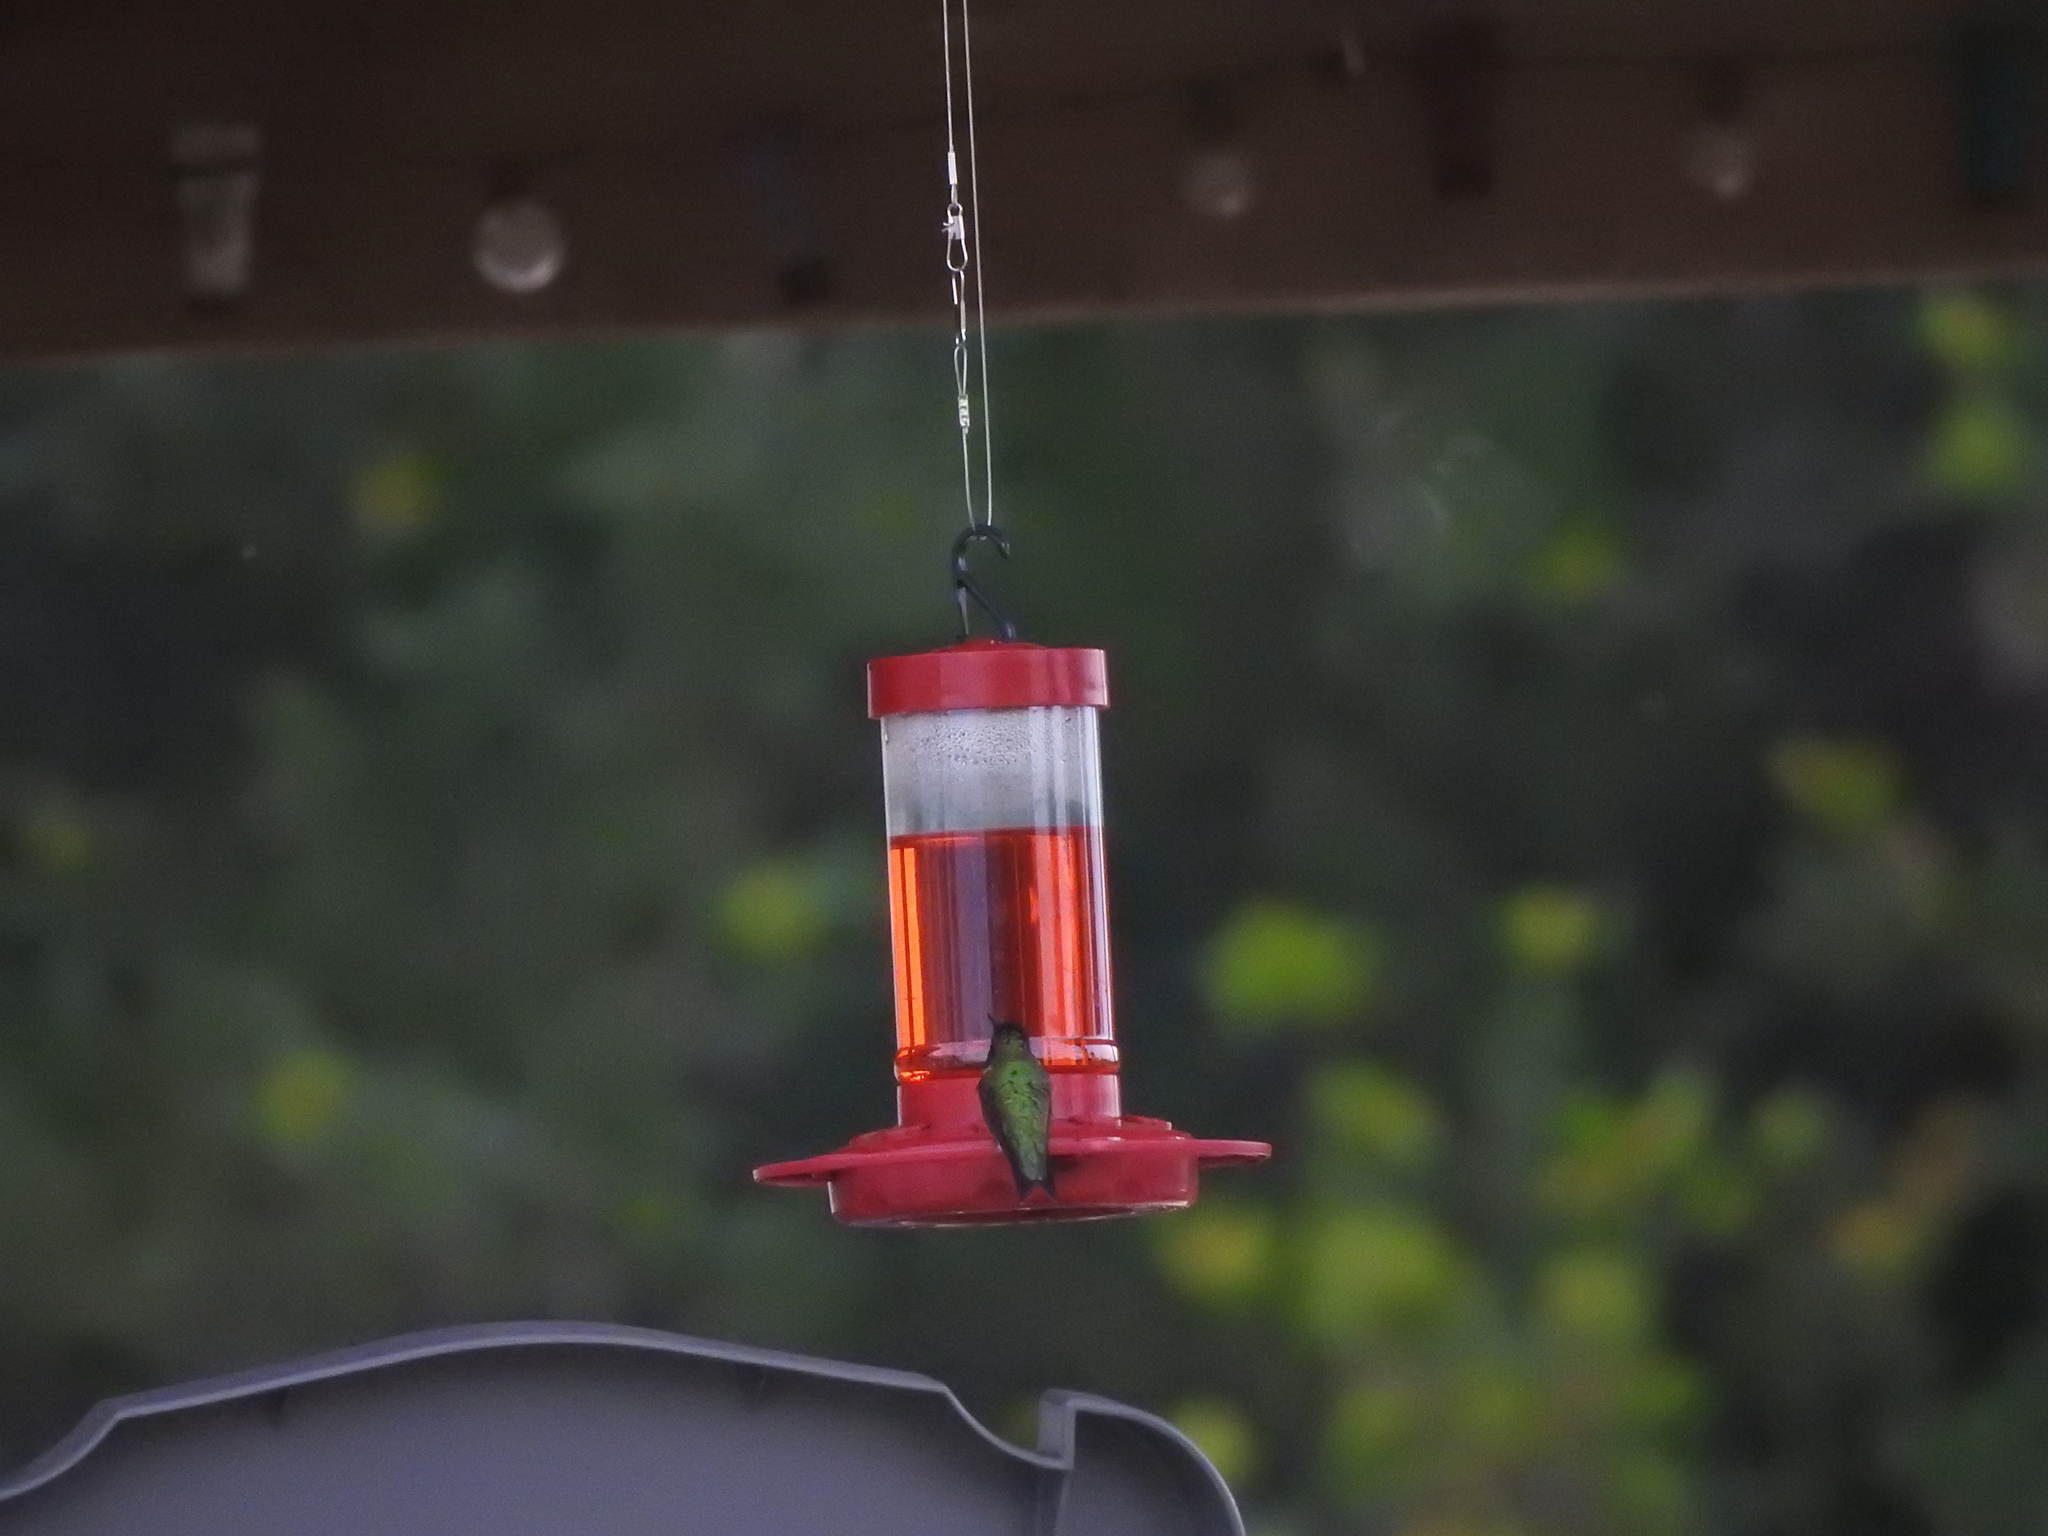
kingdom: Animalia
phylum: Chordata
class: Aves
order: Apodiformes
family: Trochilidae
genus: Archilochus
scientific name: Archilochus colubris
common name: Ruby-throated hummingbird
